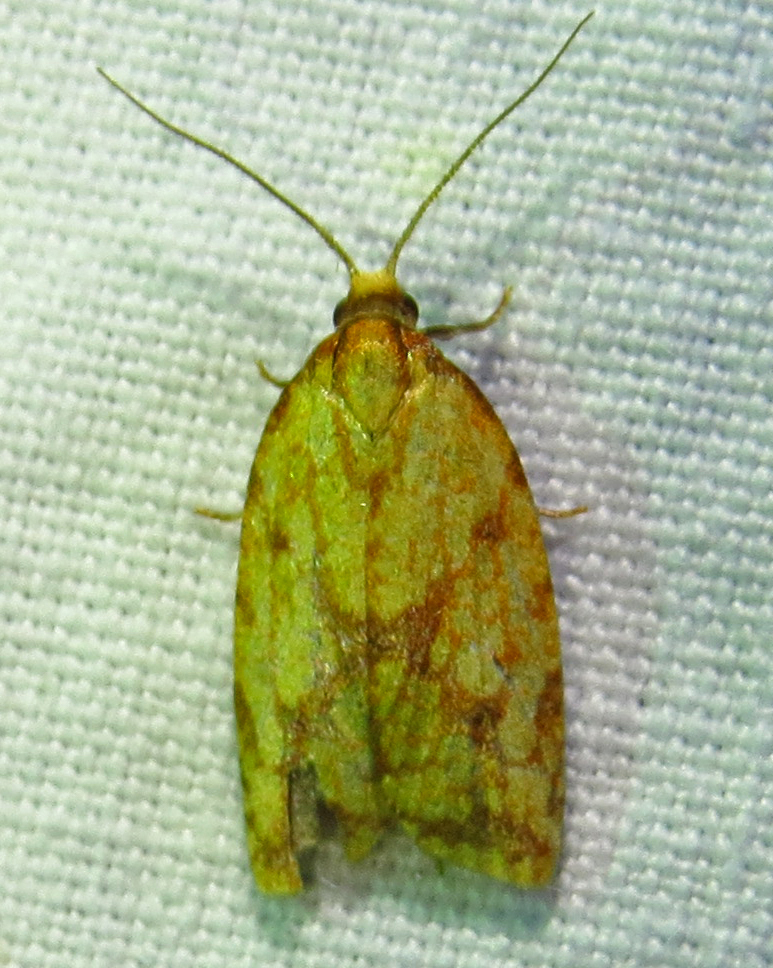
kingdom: Animalia
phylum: Arthropoda
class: Insecta
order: Lepidoptera
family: Tortricidae
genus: Sparganothis
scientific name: Sparganothis sulfureana
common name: Sparganothis fruitworm moth
